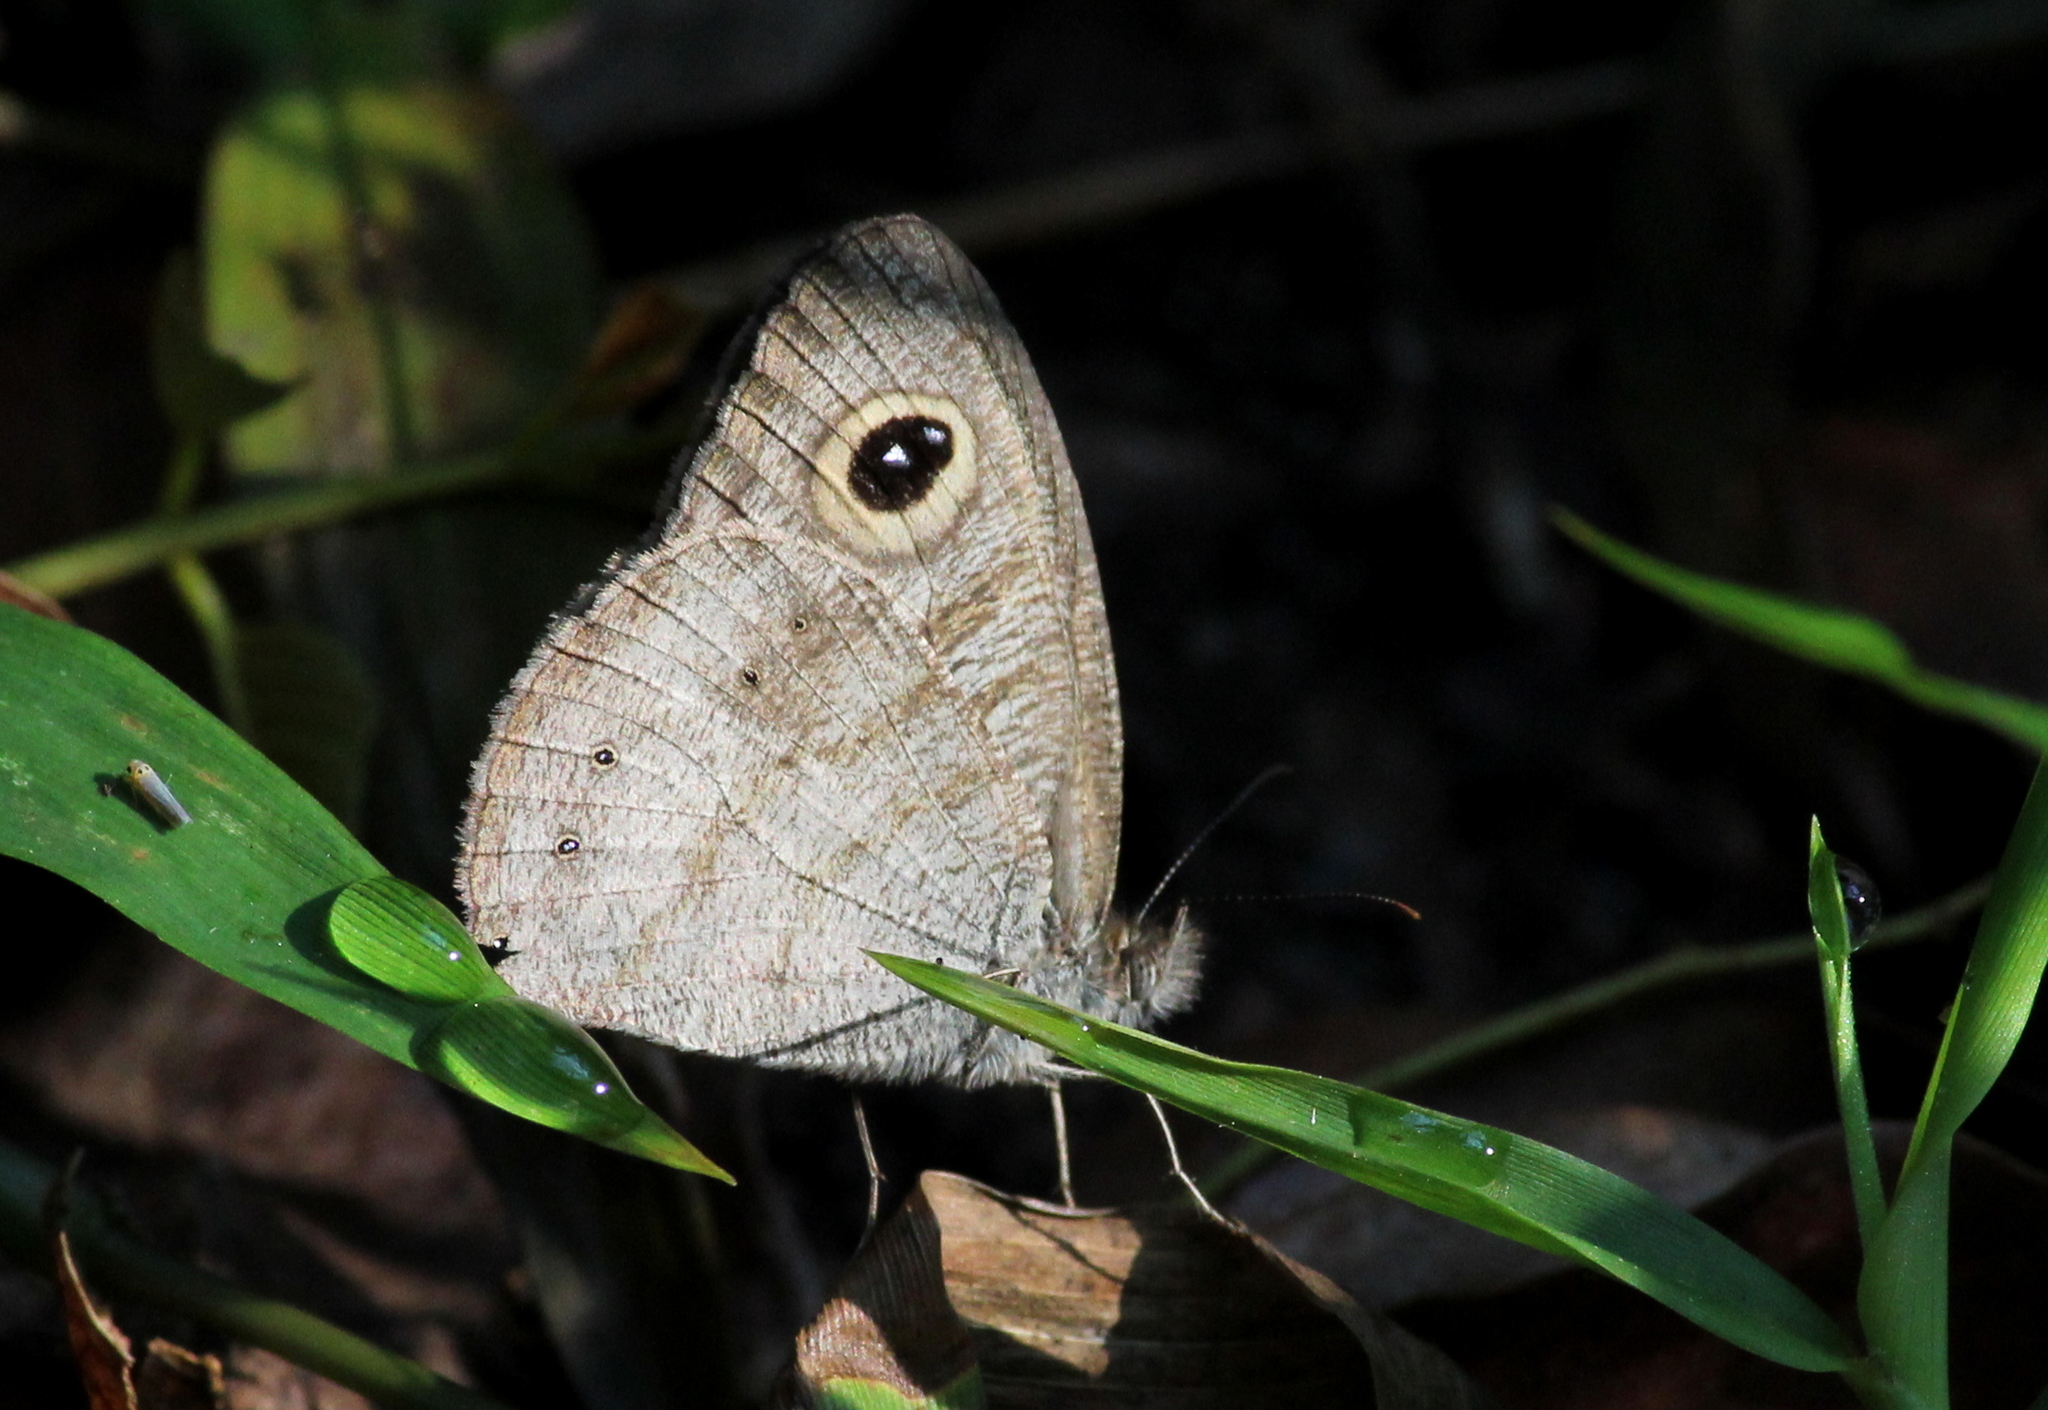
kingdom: Animalia
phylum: Arthropoda
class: Insecta
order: Lepidoptera
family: Nymphalidae
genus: Ypthima
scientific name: Ypthima baldus
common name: Common five-ring
